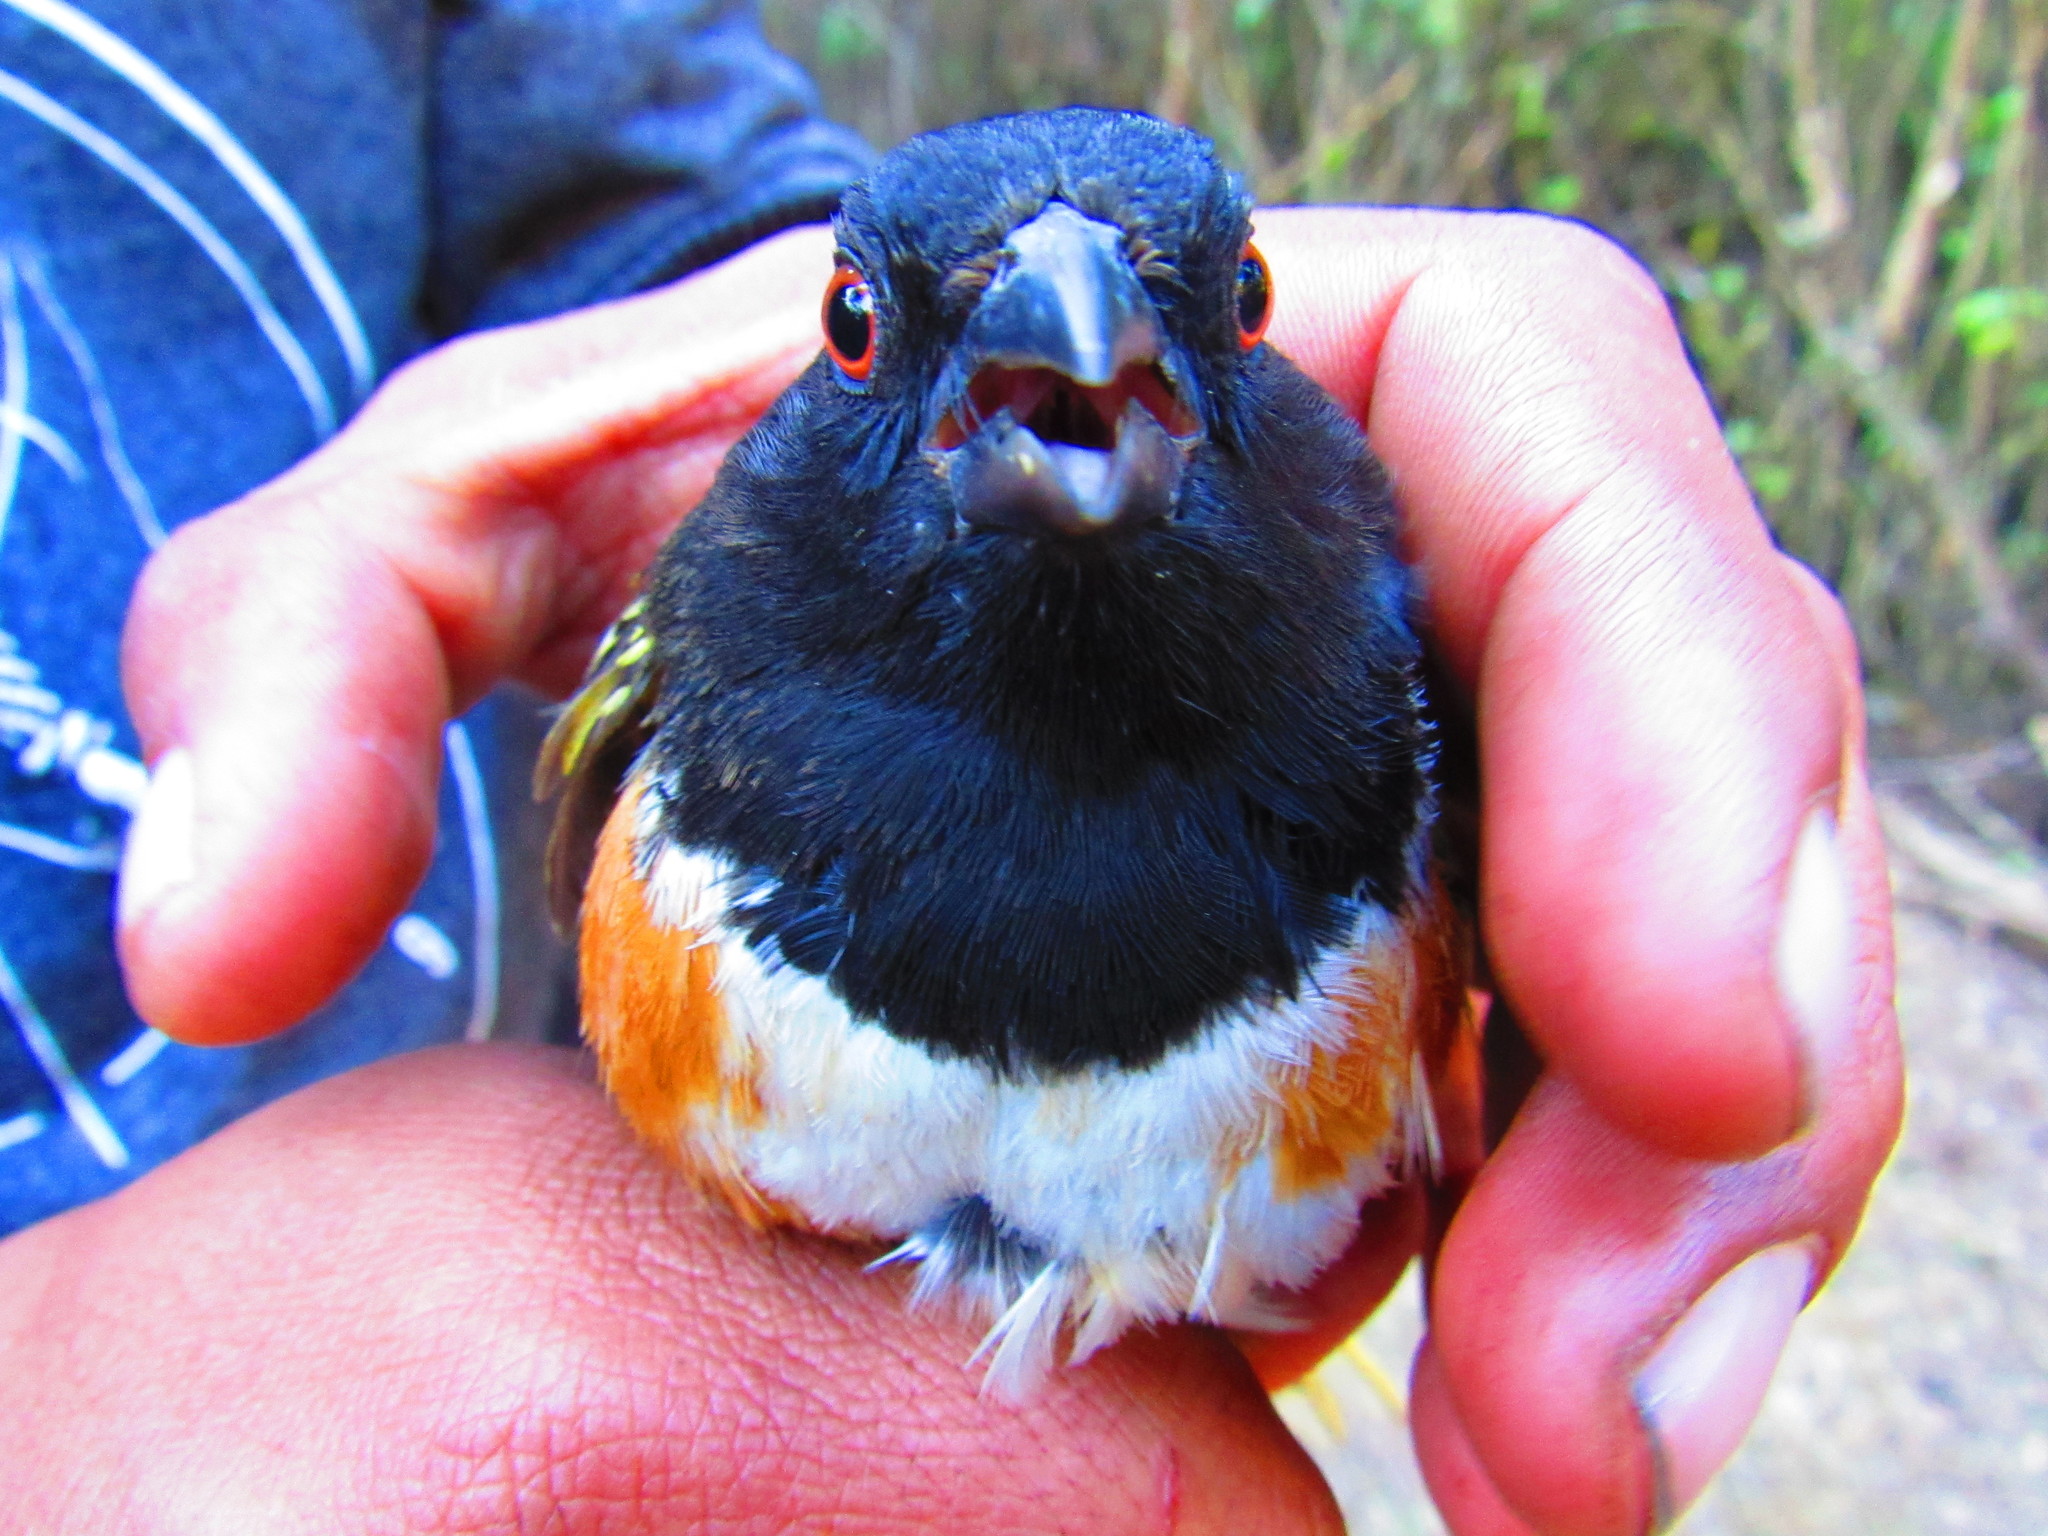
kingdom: Animalia
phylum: Chordata
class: Aves
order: Passeriformes
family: Passerellidae
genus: Pipilo
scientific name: Pipilo maculatus
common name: Spotted towhee
